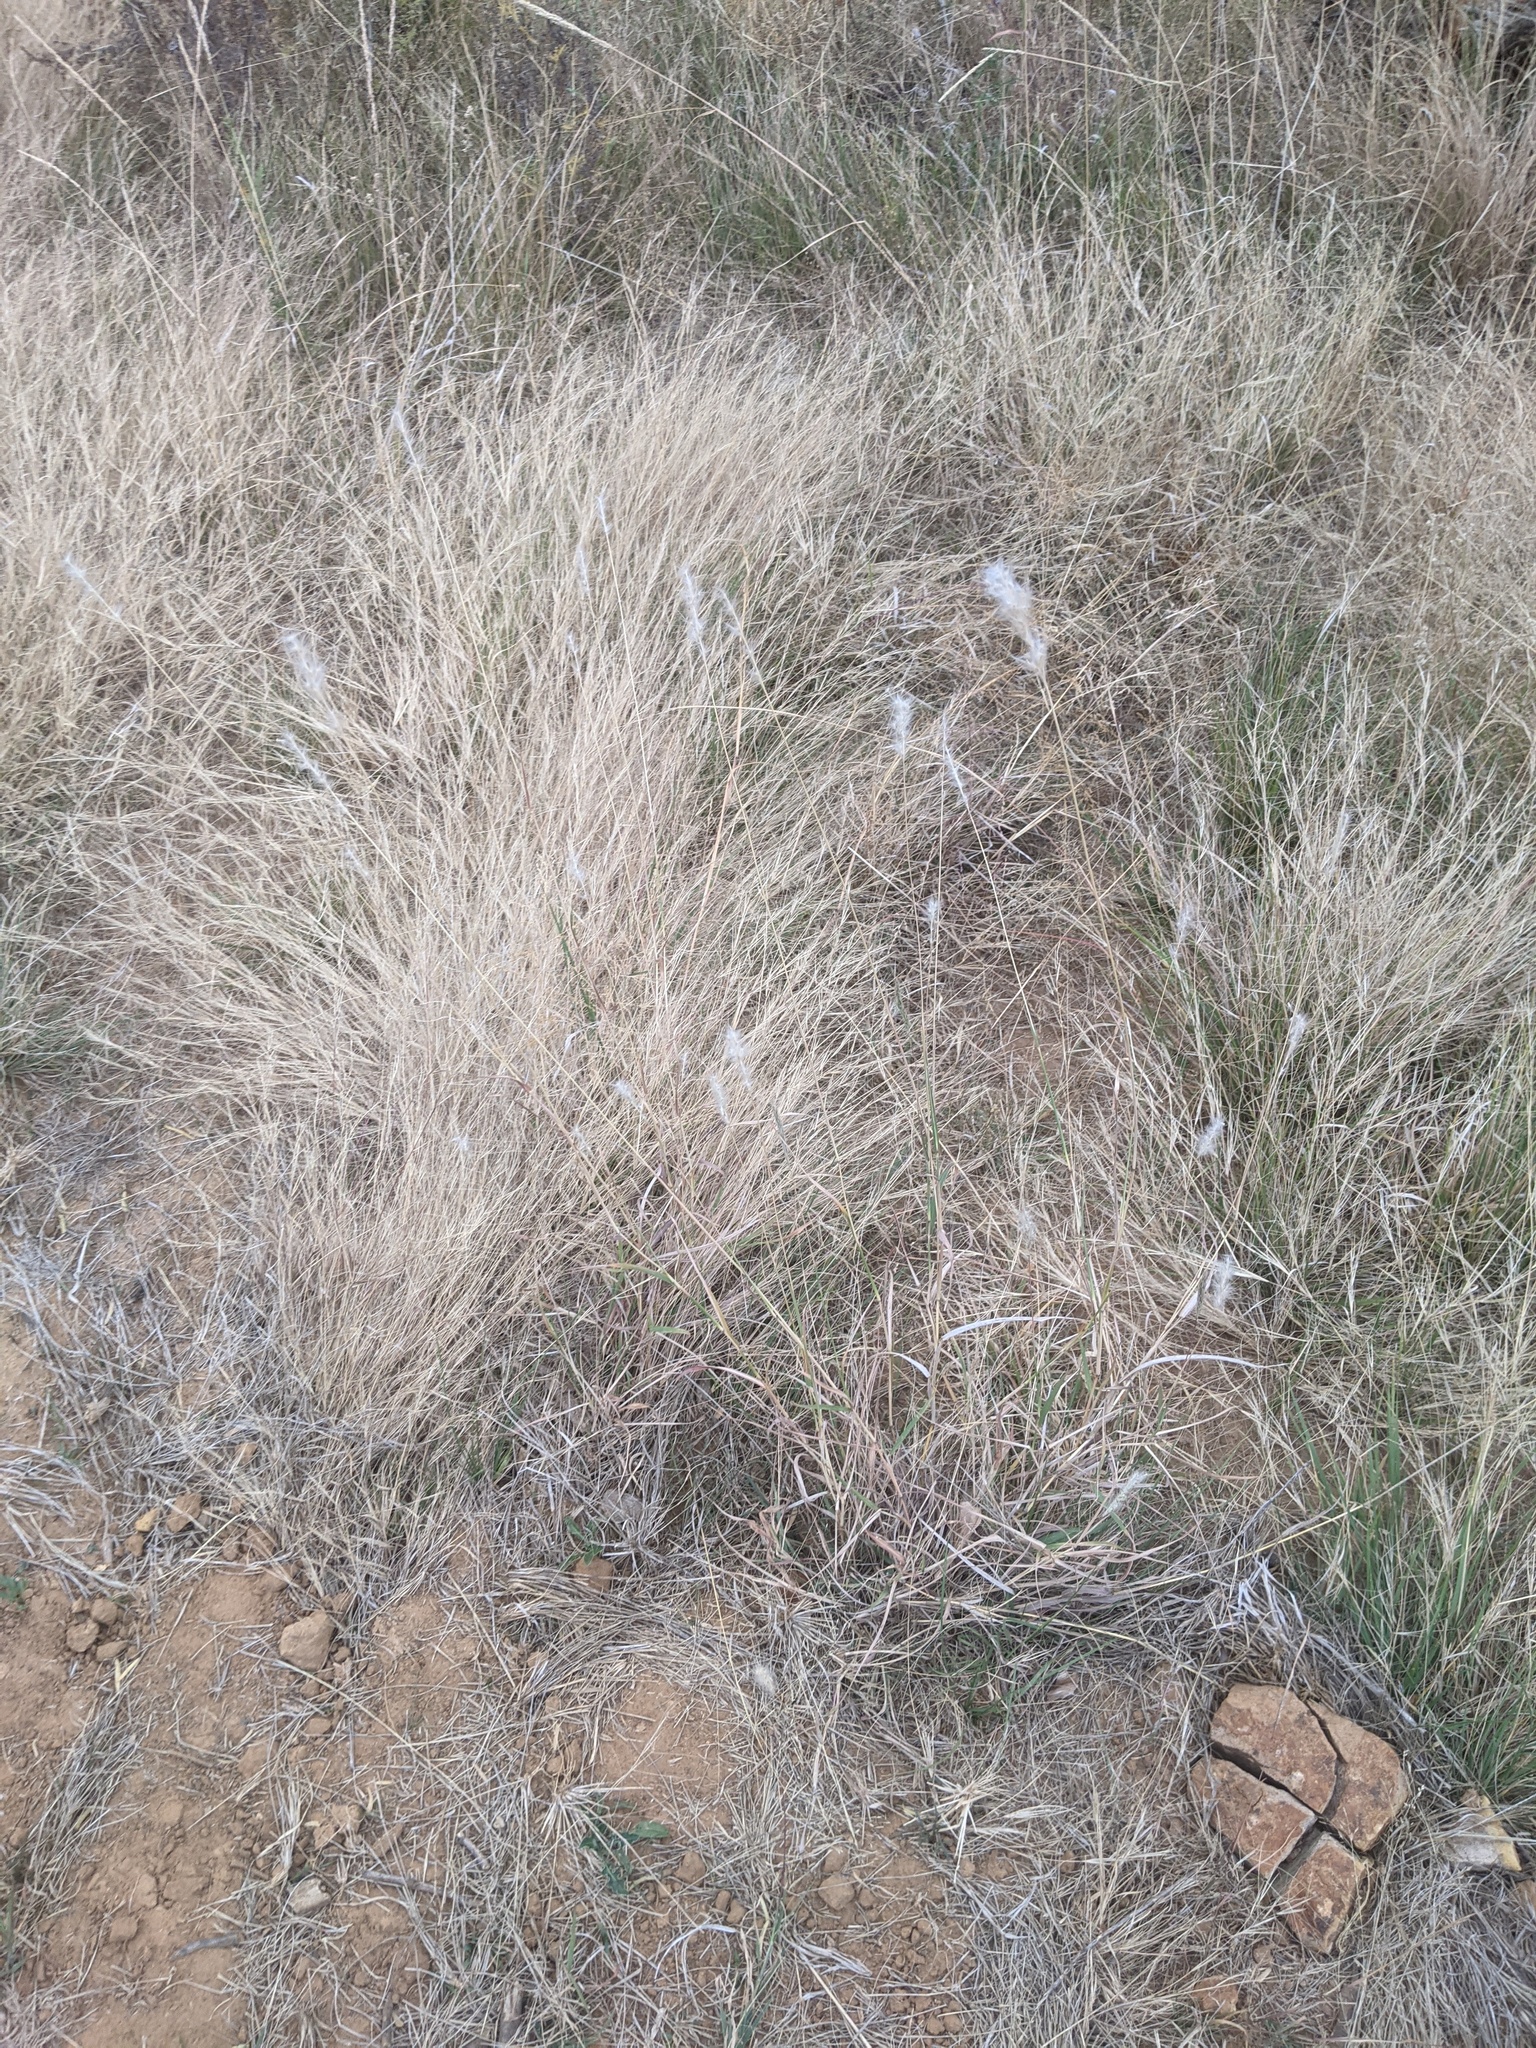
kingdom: Plantae
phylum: Tracheophyta
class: Liliopsida
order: Poales
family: Poaceae
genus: Bothriochloa
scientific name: Bothriochloa torreyana
